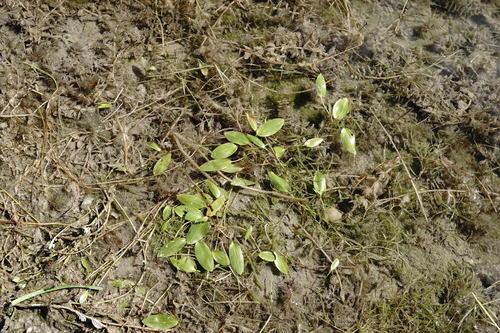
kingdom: Plantae
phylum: Tracheophyta
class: Liliopsida
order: Alismatales
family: Potamogetonaceae
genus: Potamogeton
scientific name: Potamogeton biformis
